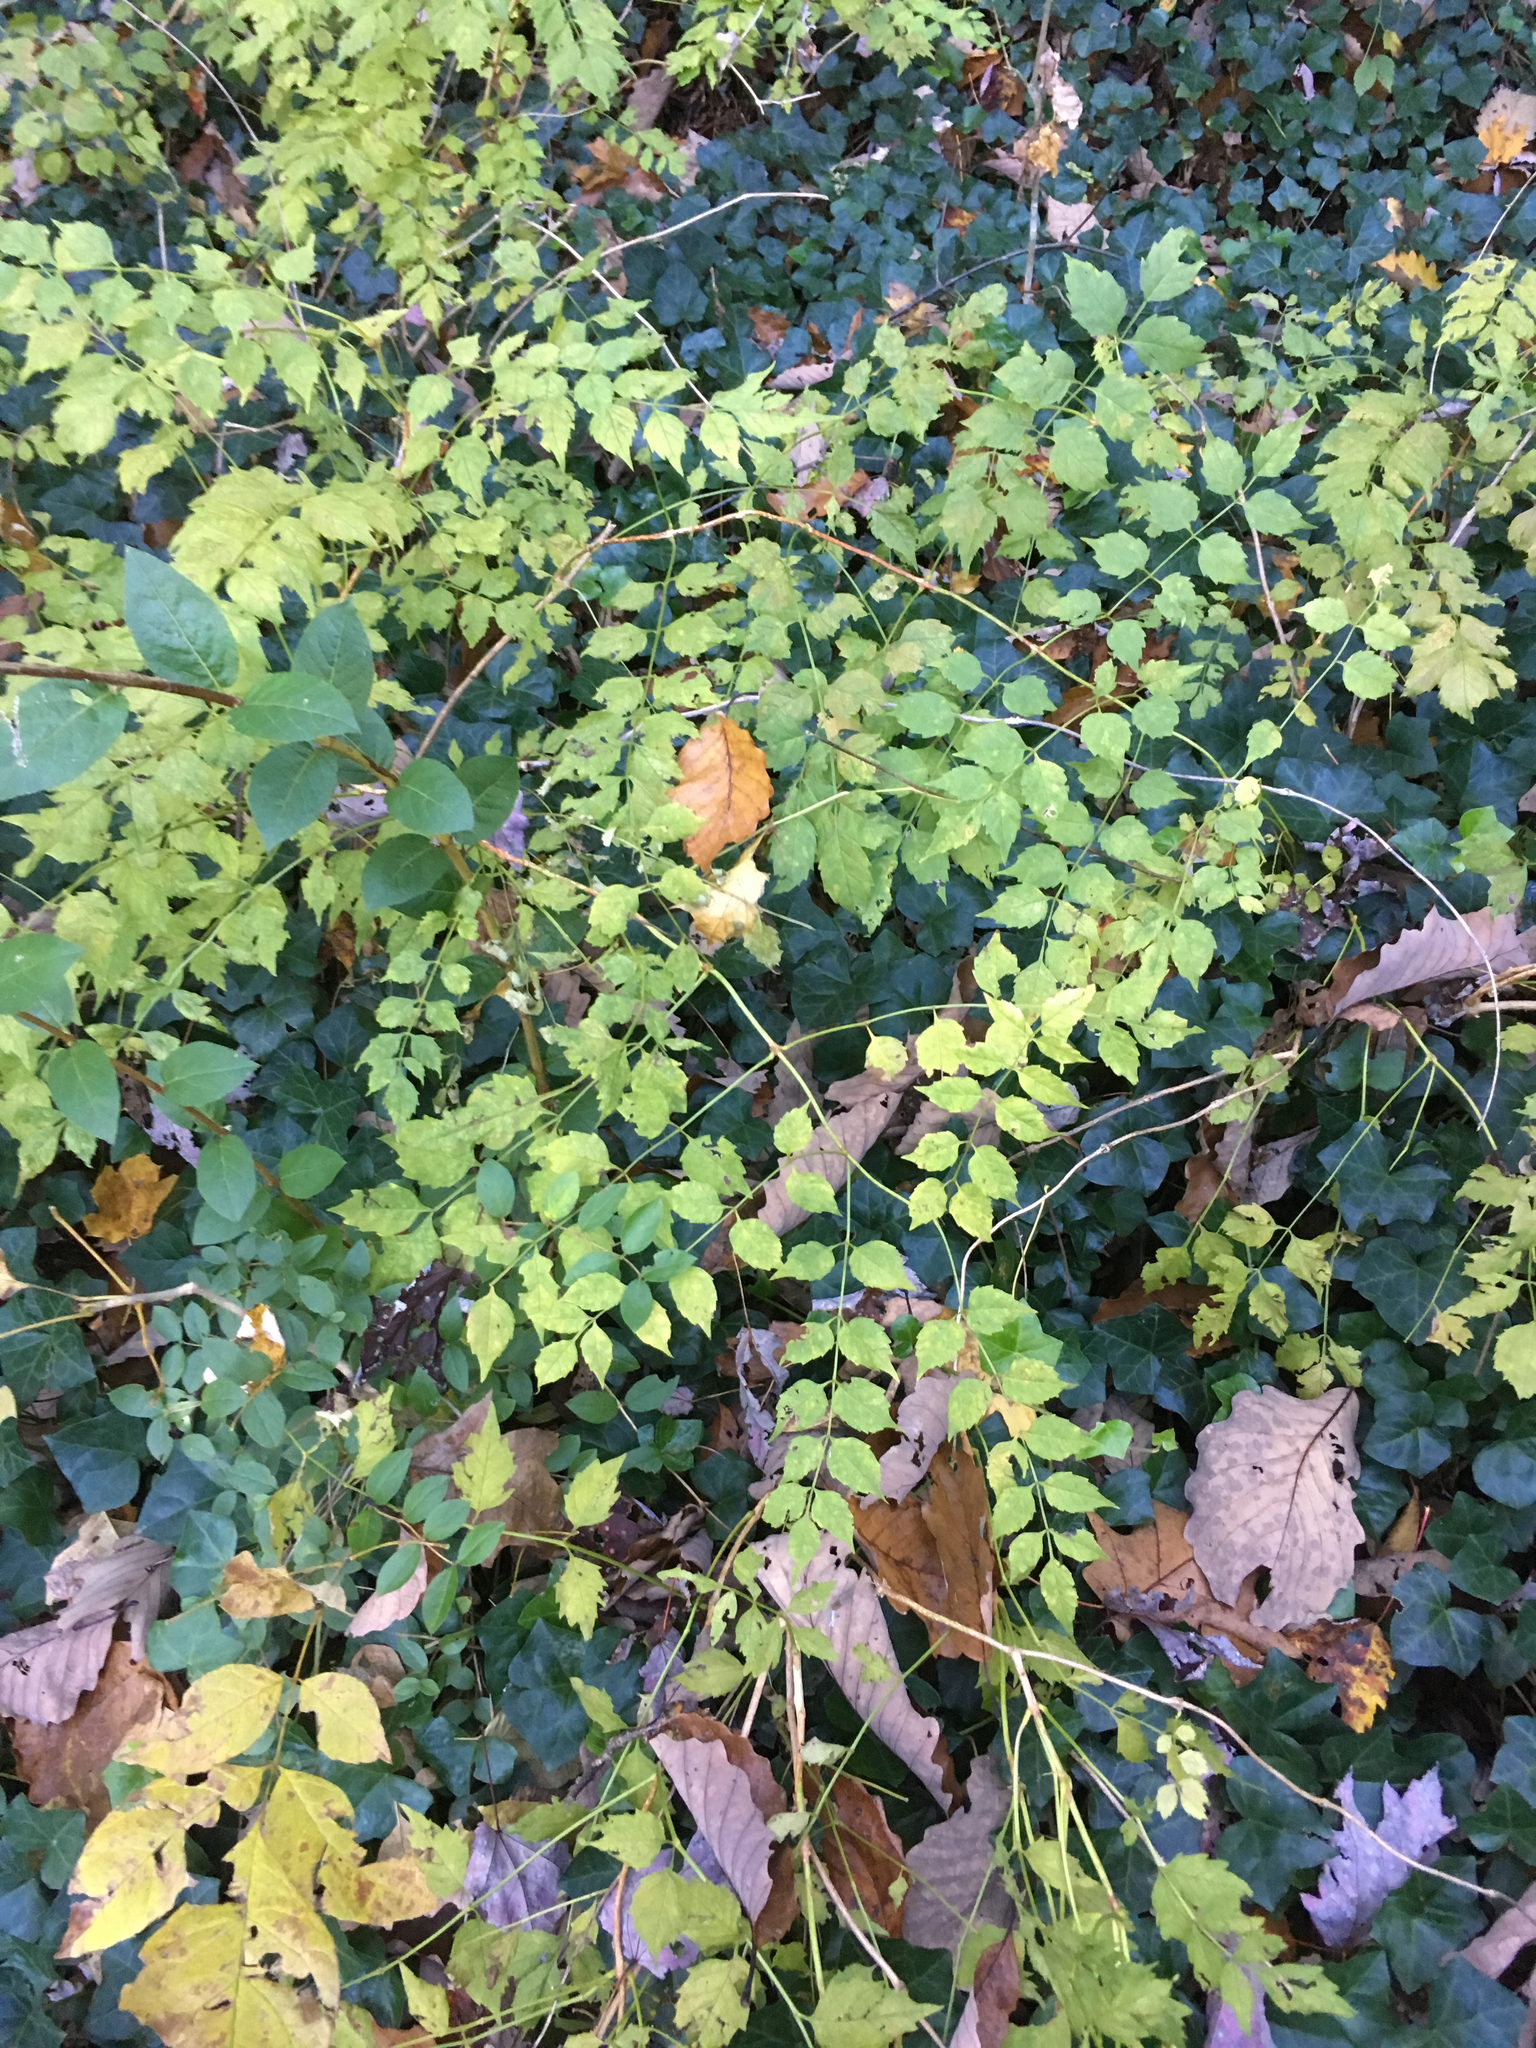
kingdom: Plantae
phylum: Tracheophyta
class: Magnoliopsida
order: Lamiales
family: Bignoniaceae
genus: Campsis
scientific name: Campsis radicans
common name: Trumpet-creeper
